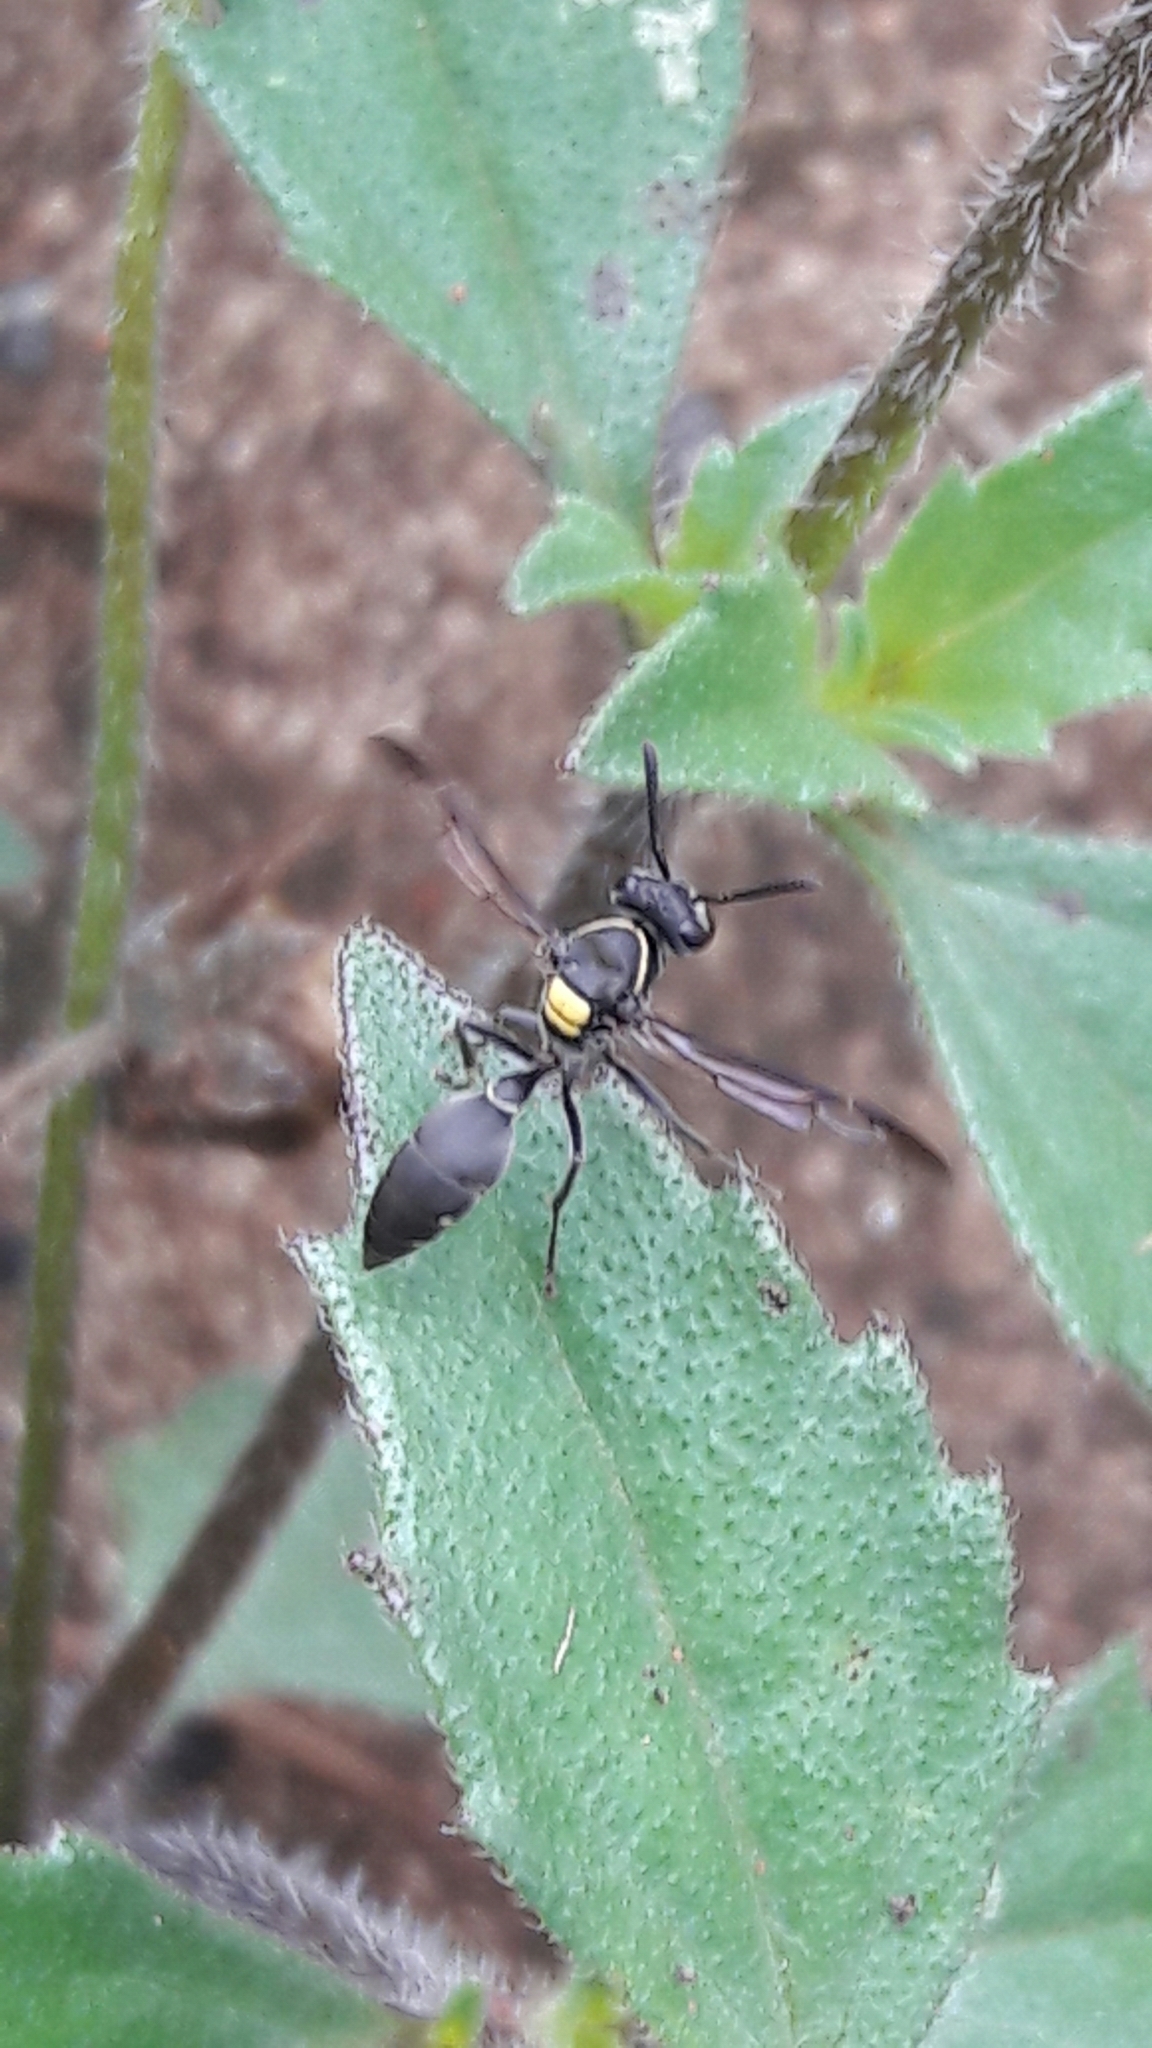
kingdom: Animalia
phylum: Arthropoda
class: Insecta
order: Hymenoptera
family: Eumenidae
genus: Polybia
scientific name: Polybia paulista
